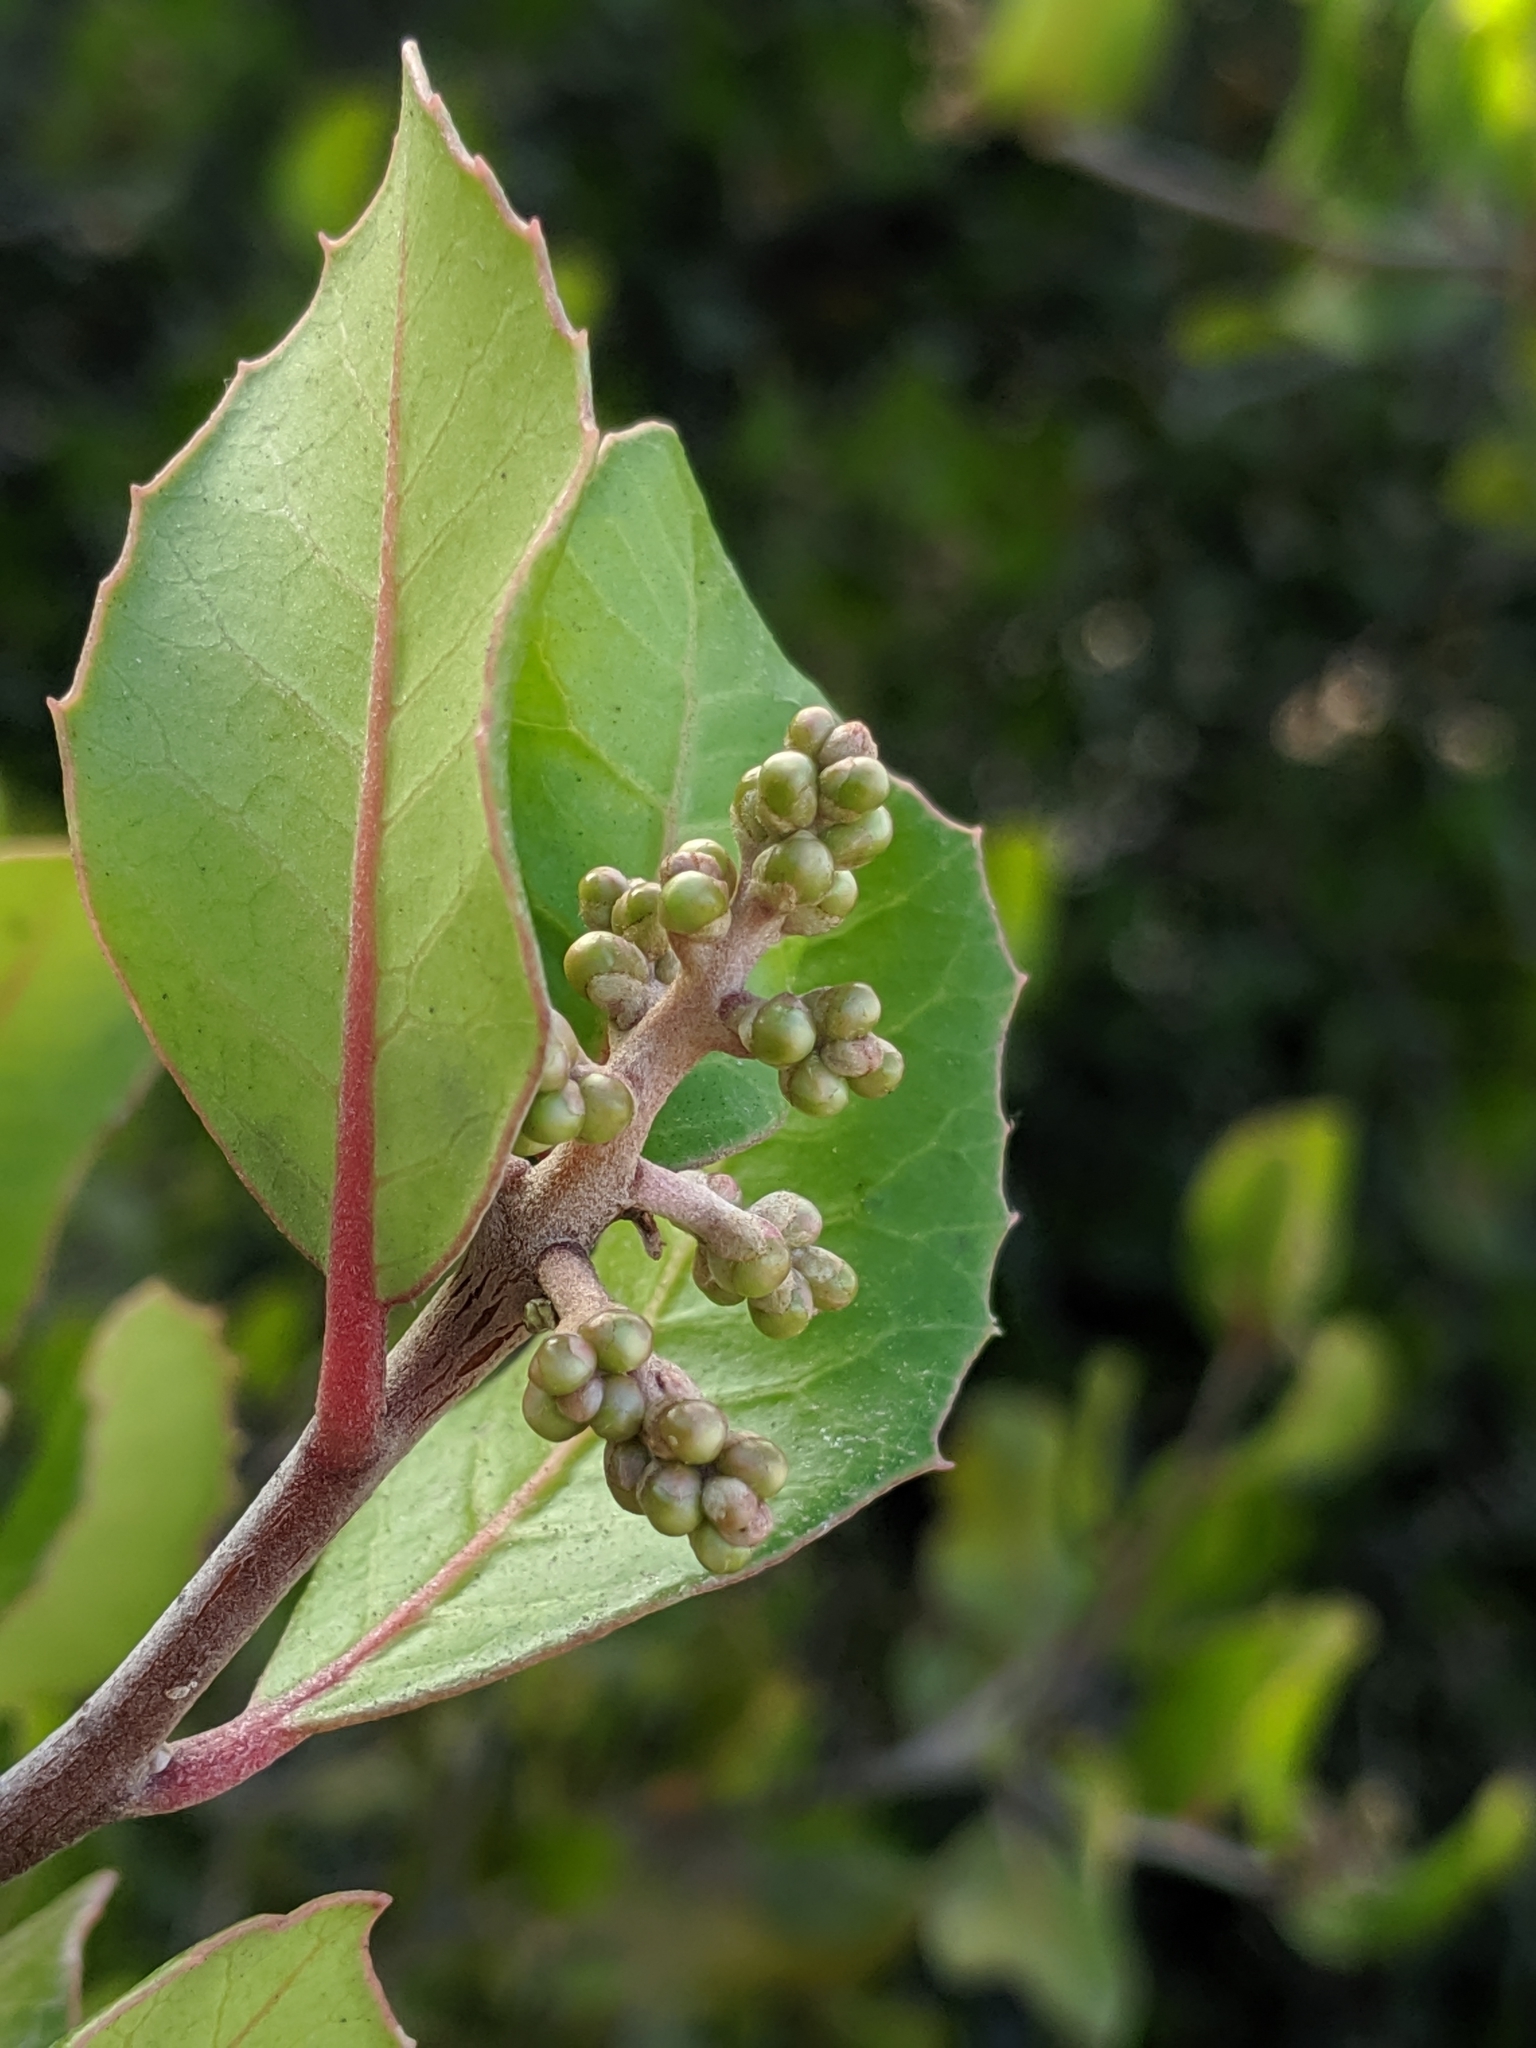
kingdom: Plantae
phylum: Tracheophyta
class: Magnoliopsida
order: Sapindales
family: Anacardiaceae
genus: Rhus
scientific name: Rhus integrifolia
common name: Lemonade sumac
